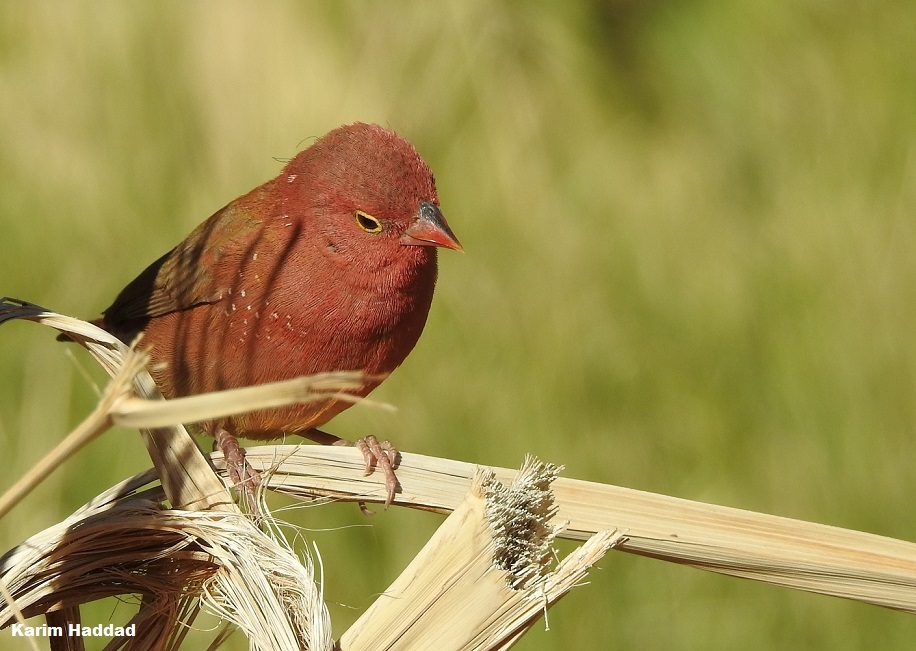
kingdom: Animalia
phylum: Chordata
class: Aves
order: Passeriformes
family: Estrildidae
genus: Lagonosticta
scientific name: Lagonosticta senegala
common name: Red-billed firefinch
